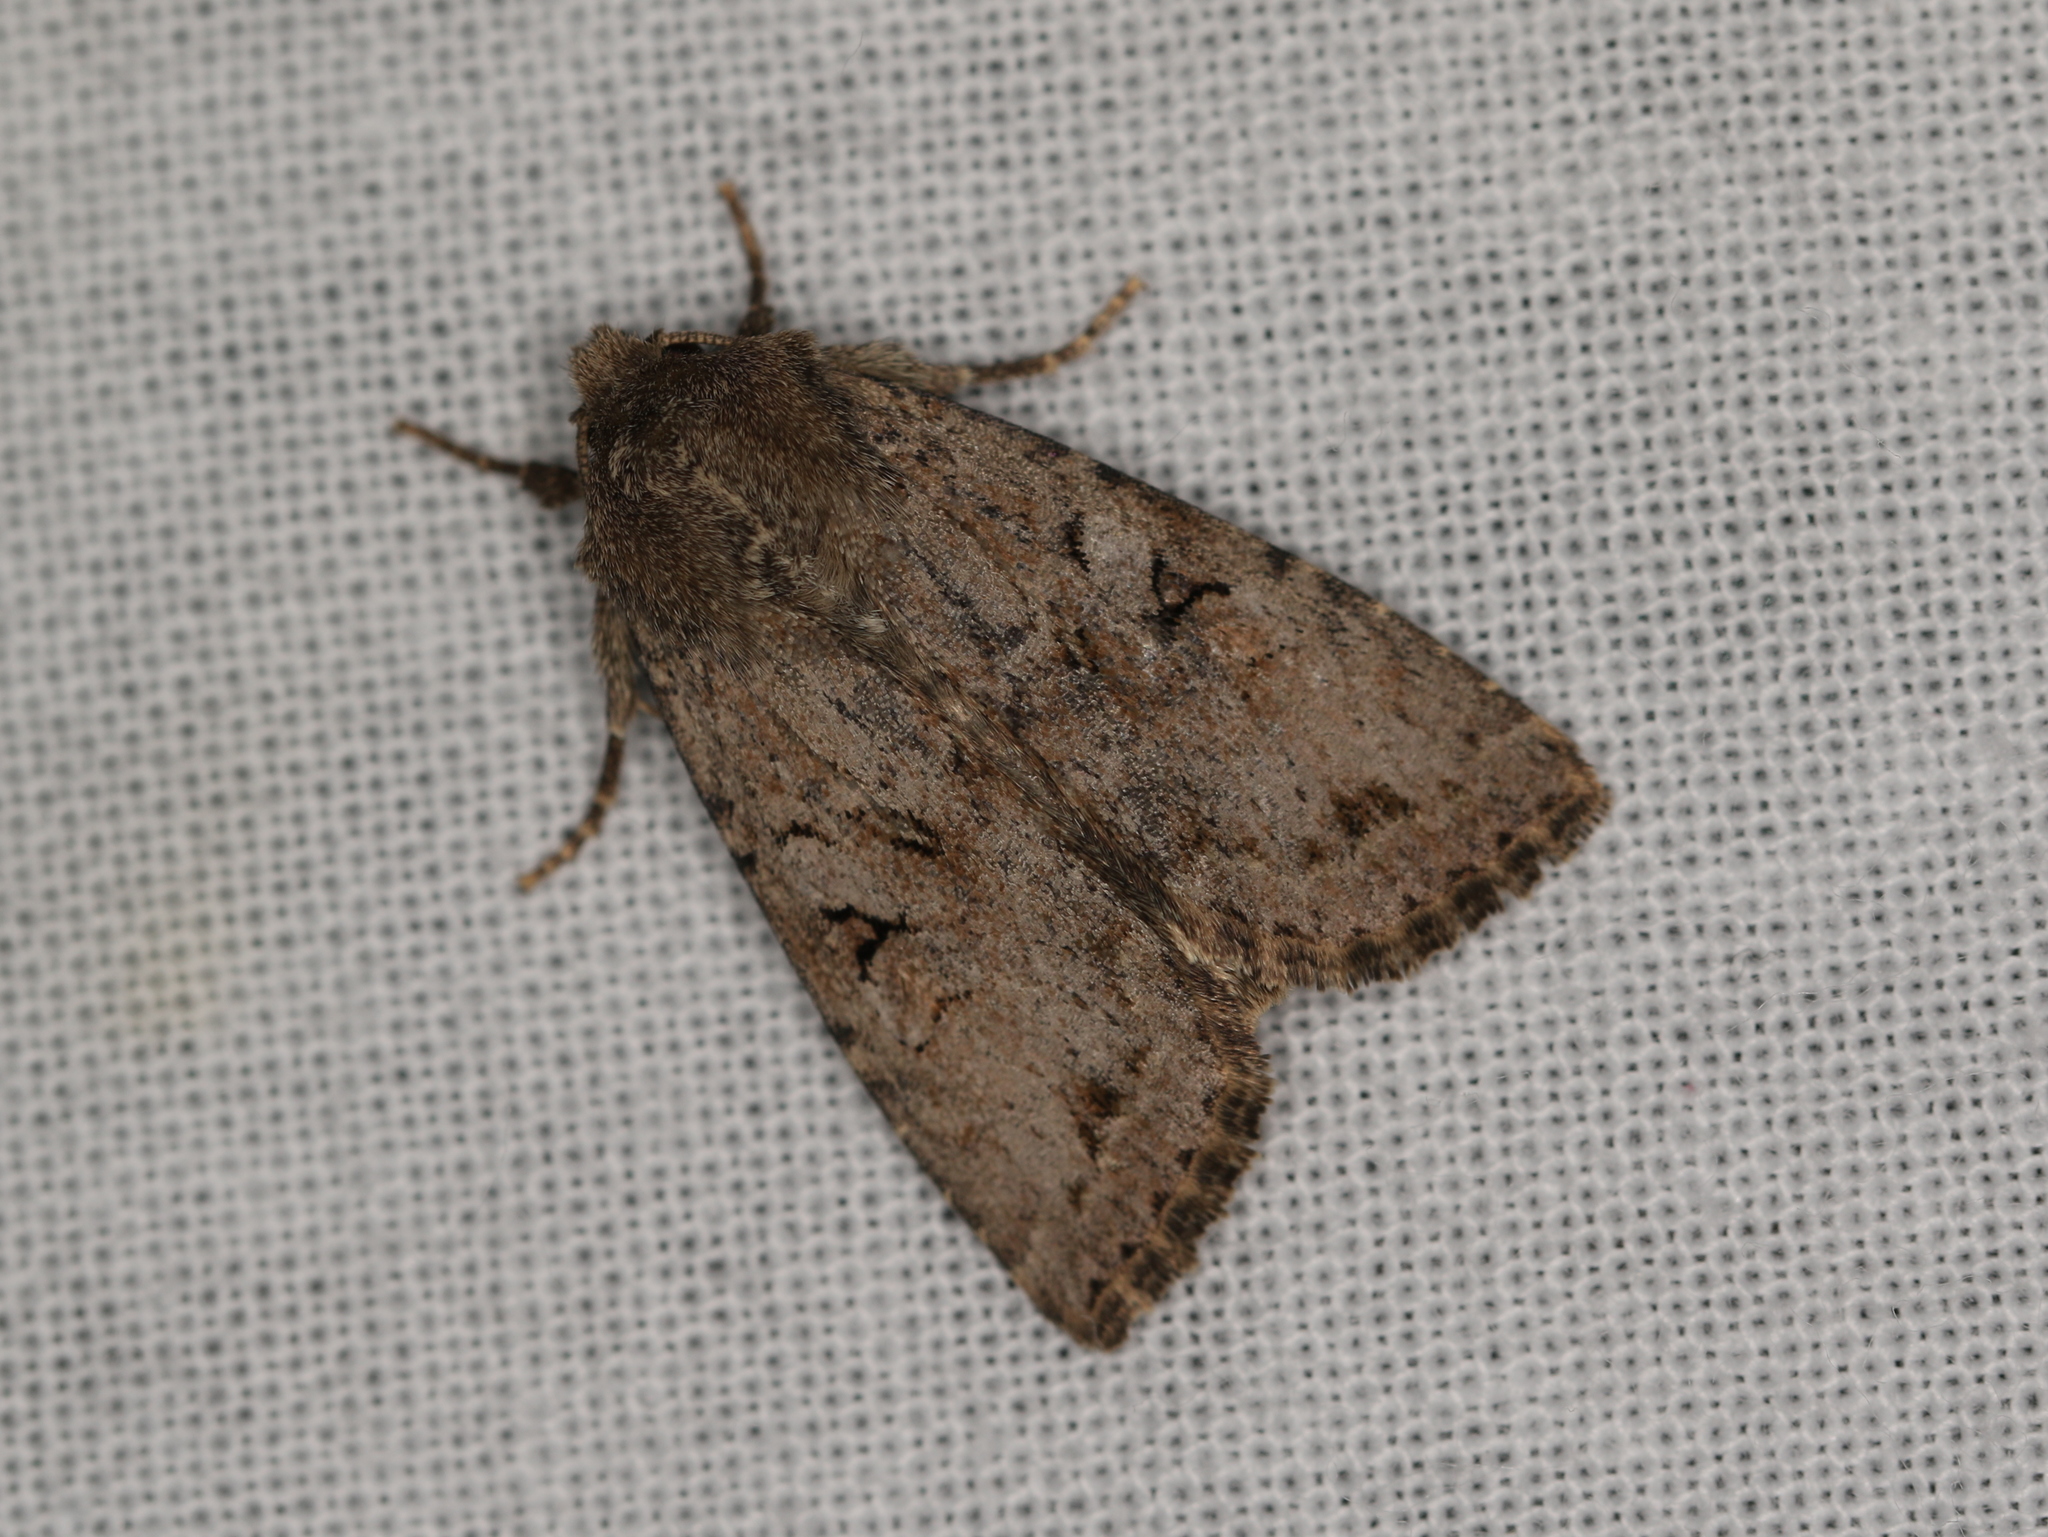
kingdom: Animalia
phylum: Arthropoda
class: Insecta
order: Lepidoptera
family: Noctuidae
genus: Apterogenum
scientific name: Apterogenum ypsillon
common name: Dingy shears
